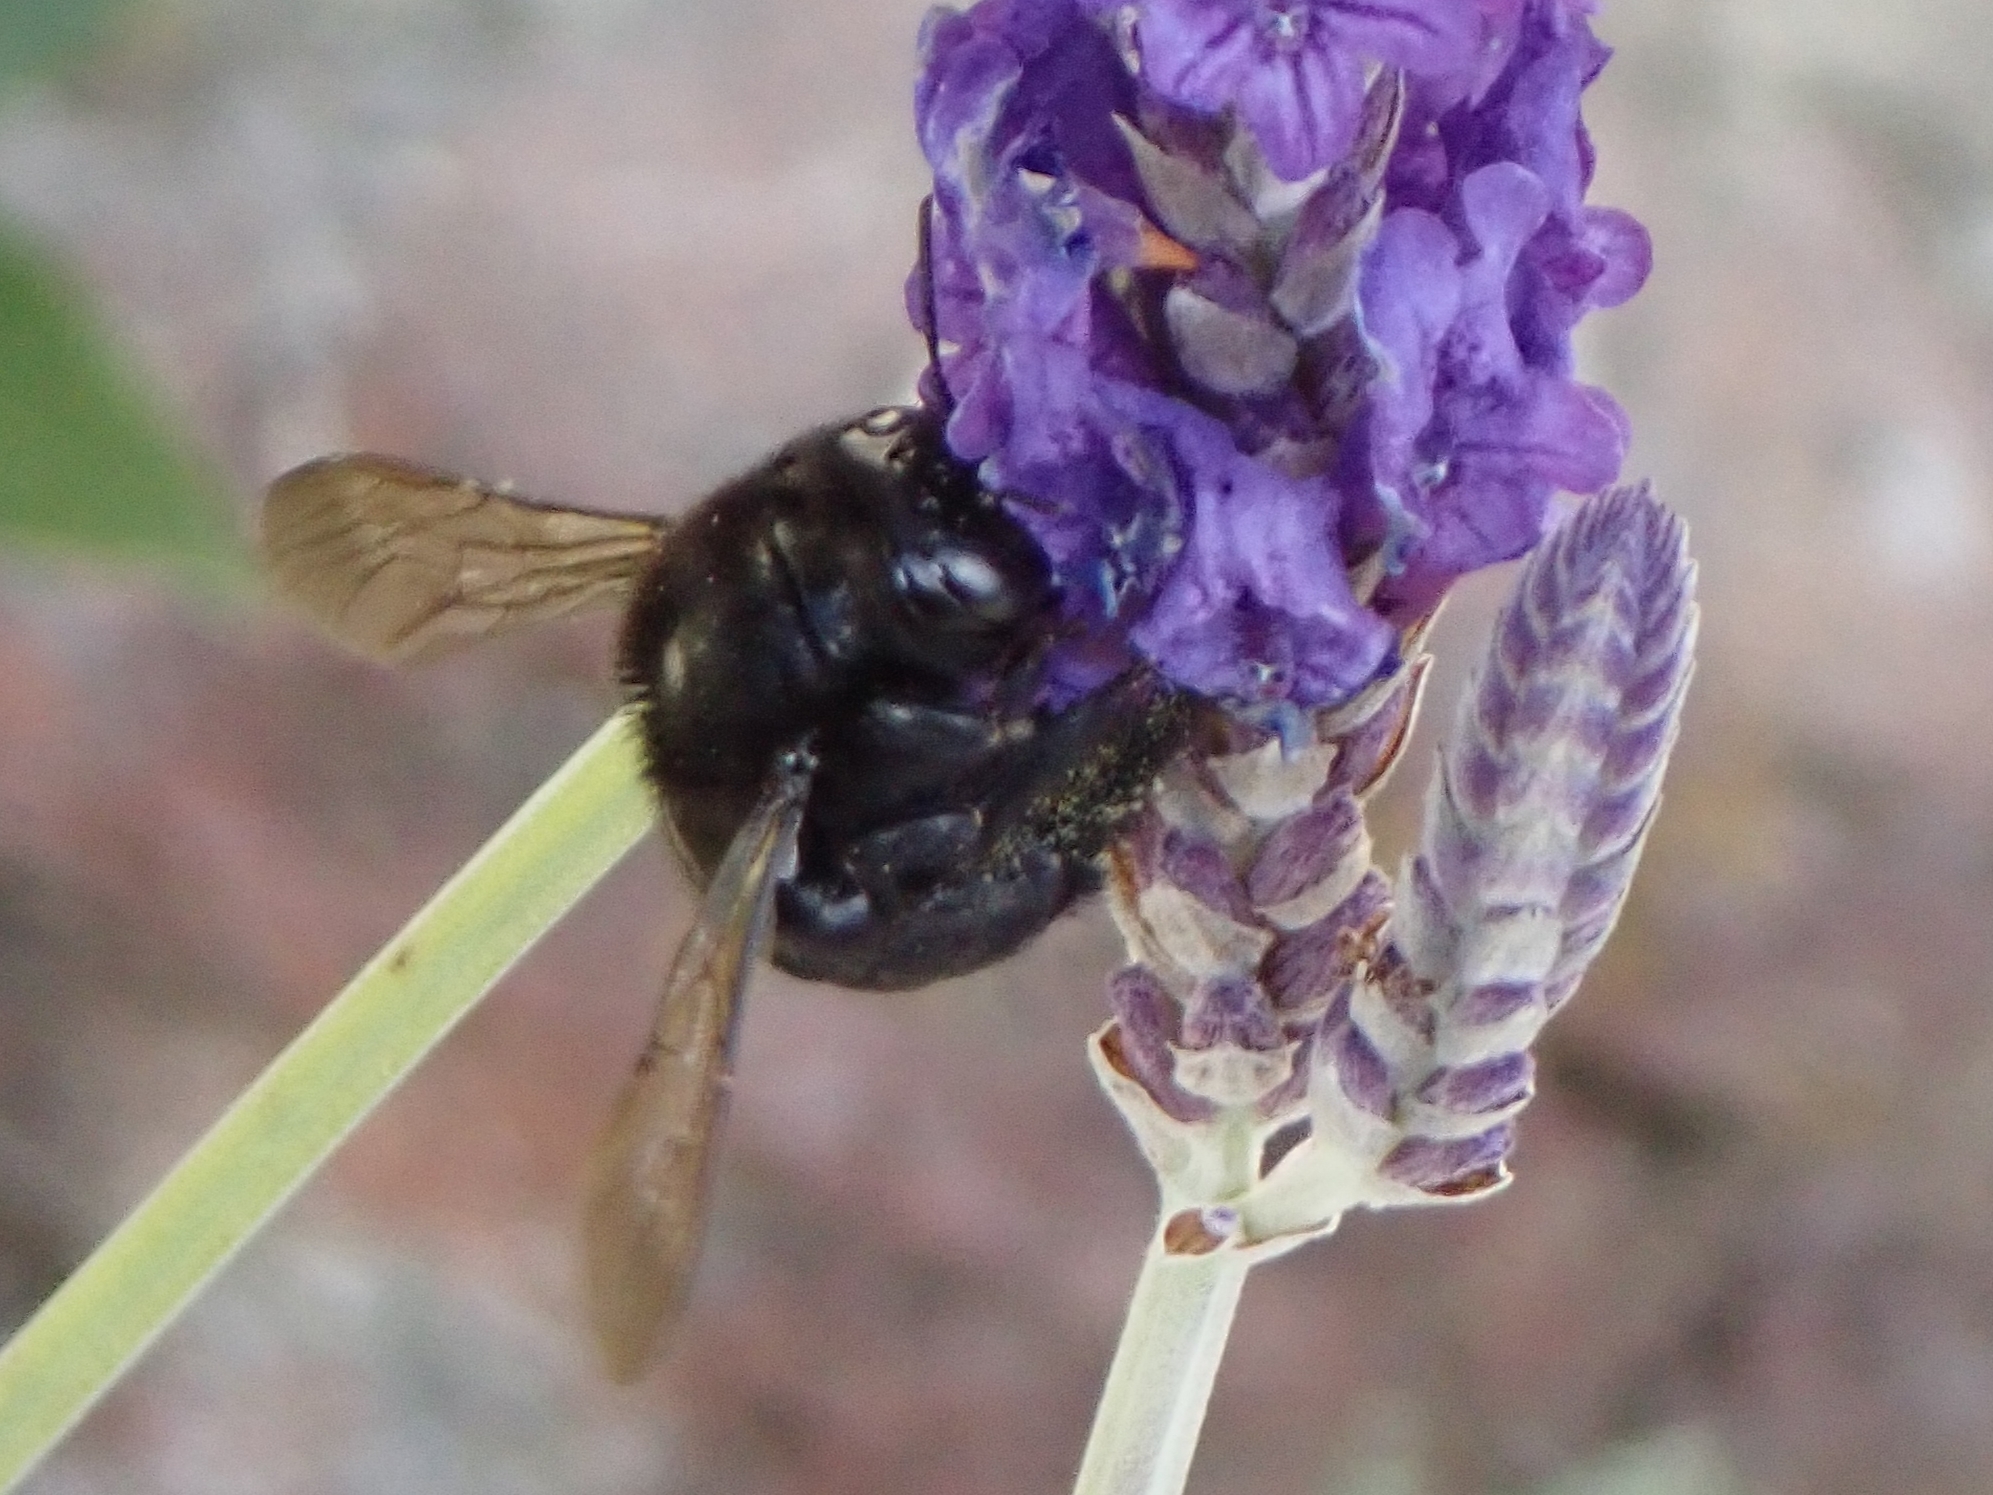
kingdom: Animalia
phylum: Arthropoda
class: Insecta
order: Hymenoptera
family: Apidae
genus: Xylocopa
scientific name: Xylocopa tabaniformis
